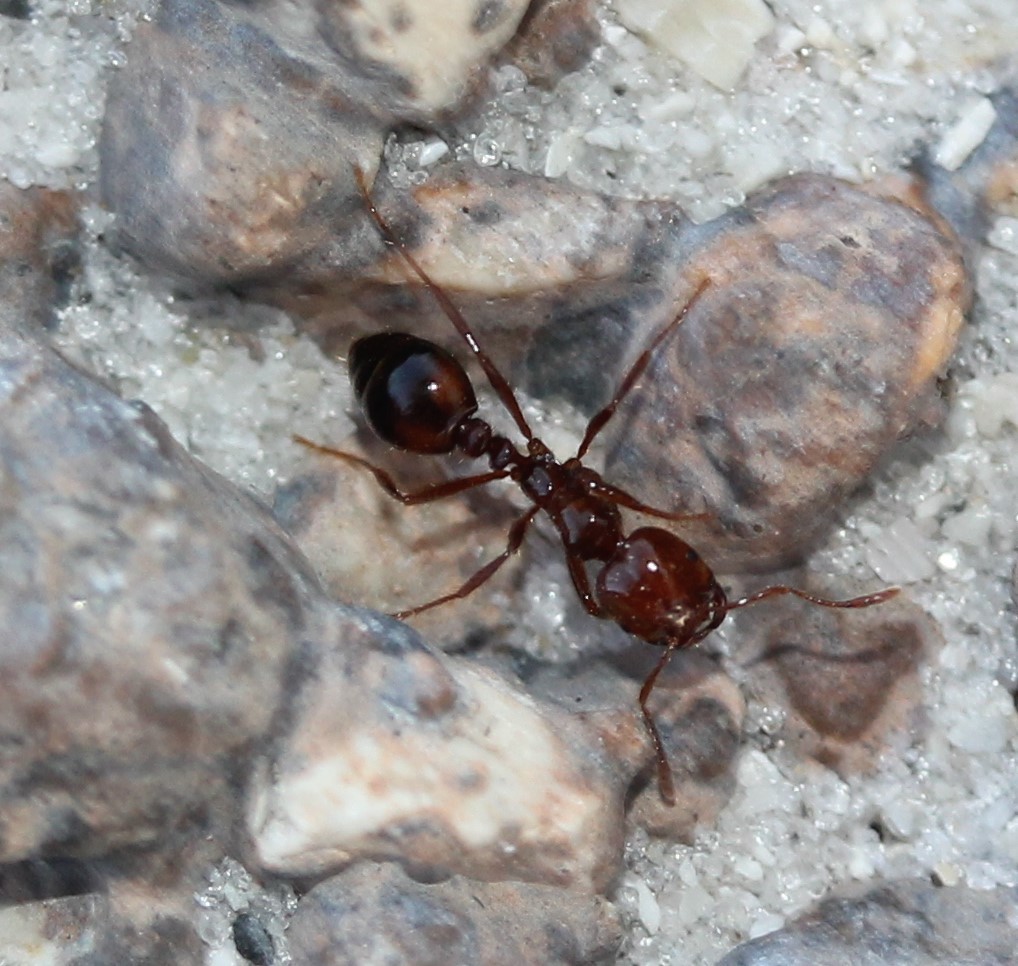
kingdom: Animalia
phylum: Arthropoda
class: Insecta
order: Hymenoptera
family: Formicidae
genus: Solenopsis
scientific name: Solenopsis invicta
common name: Red imported fire ant
